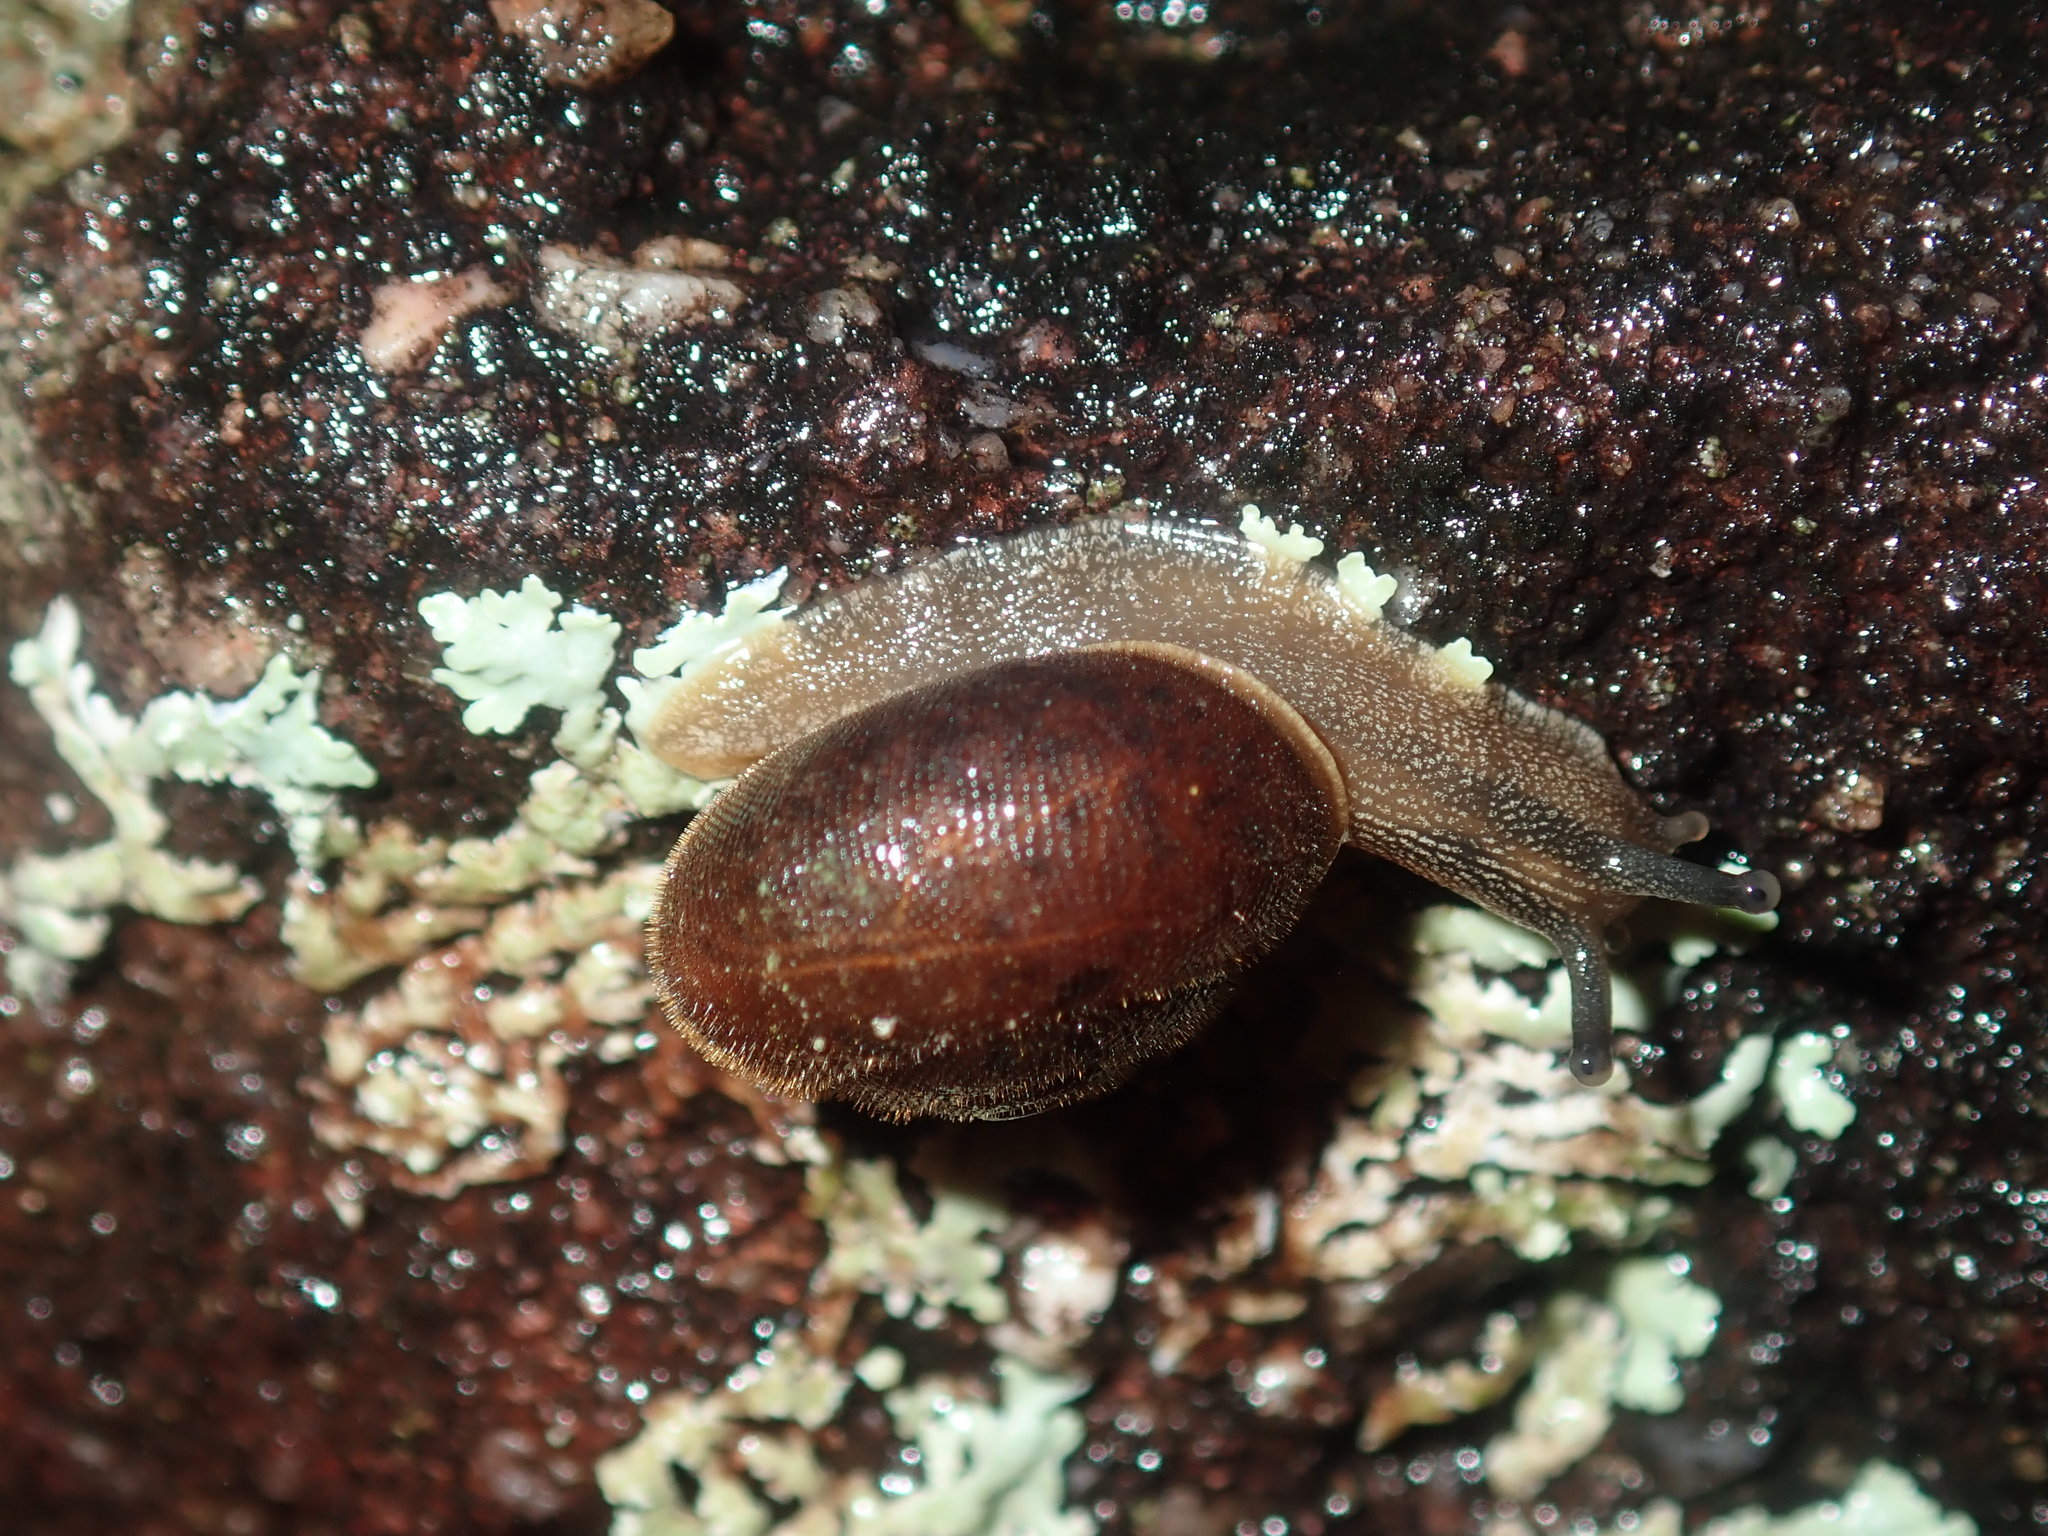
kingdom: Animalia
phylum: Mollusca
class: Gastropoda
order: Stylommatophora
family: Camaenidae
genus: Austrochloritis
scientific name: Austrochloritis wollemiensis
